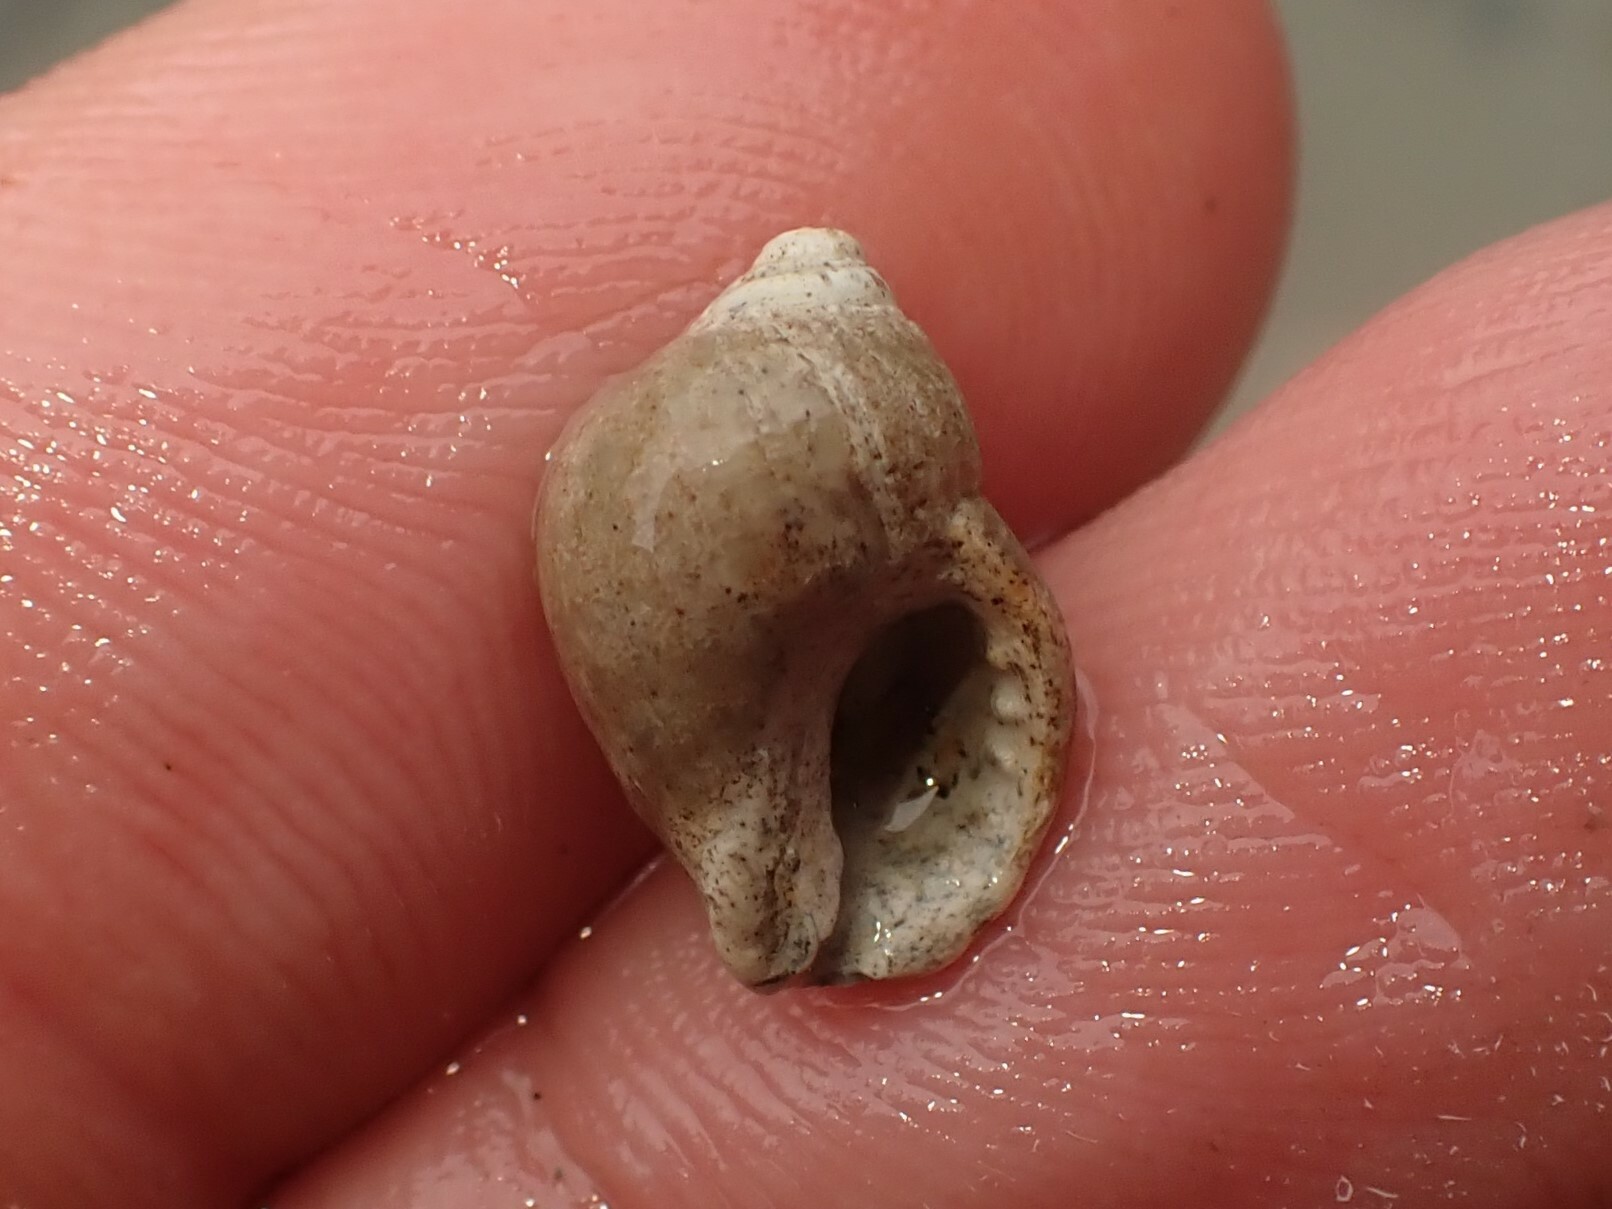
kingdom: Animalia
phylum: Mollusca
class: Gastropoda
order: Neogastropoda
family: Muricidae
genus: Paratrophon
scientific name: Paratrophon patens
